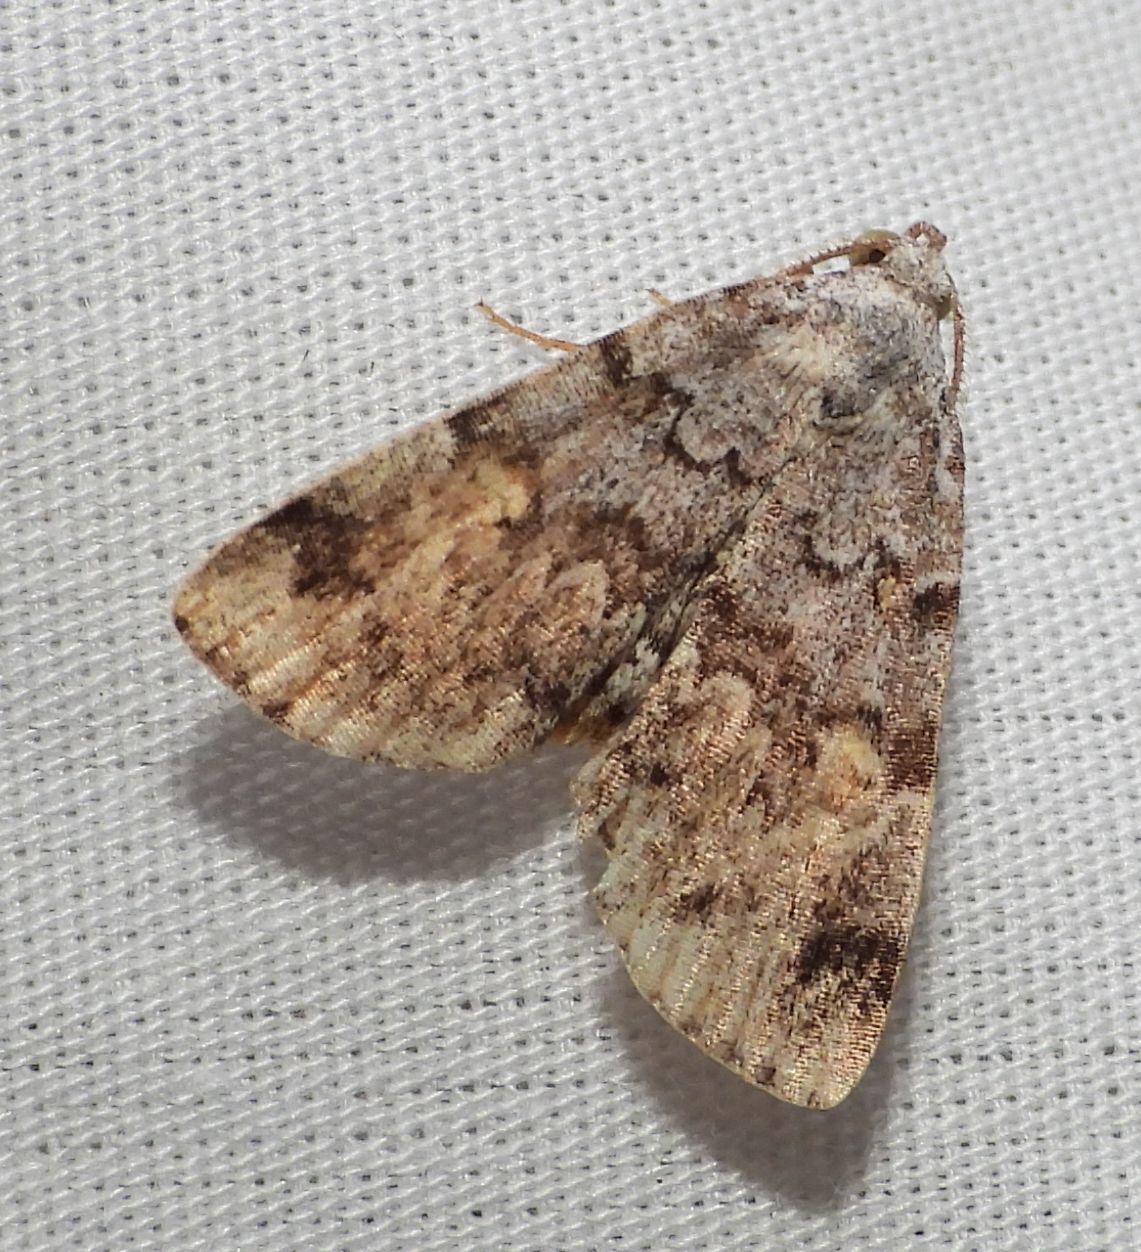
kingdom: Animalia
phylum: Arthropoda
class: Insecta
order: Lepidoptera
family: Erebidae
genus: Idia
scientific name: Idia americalis
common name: American idia moth
